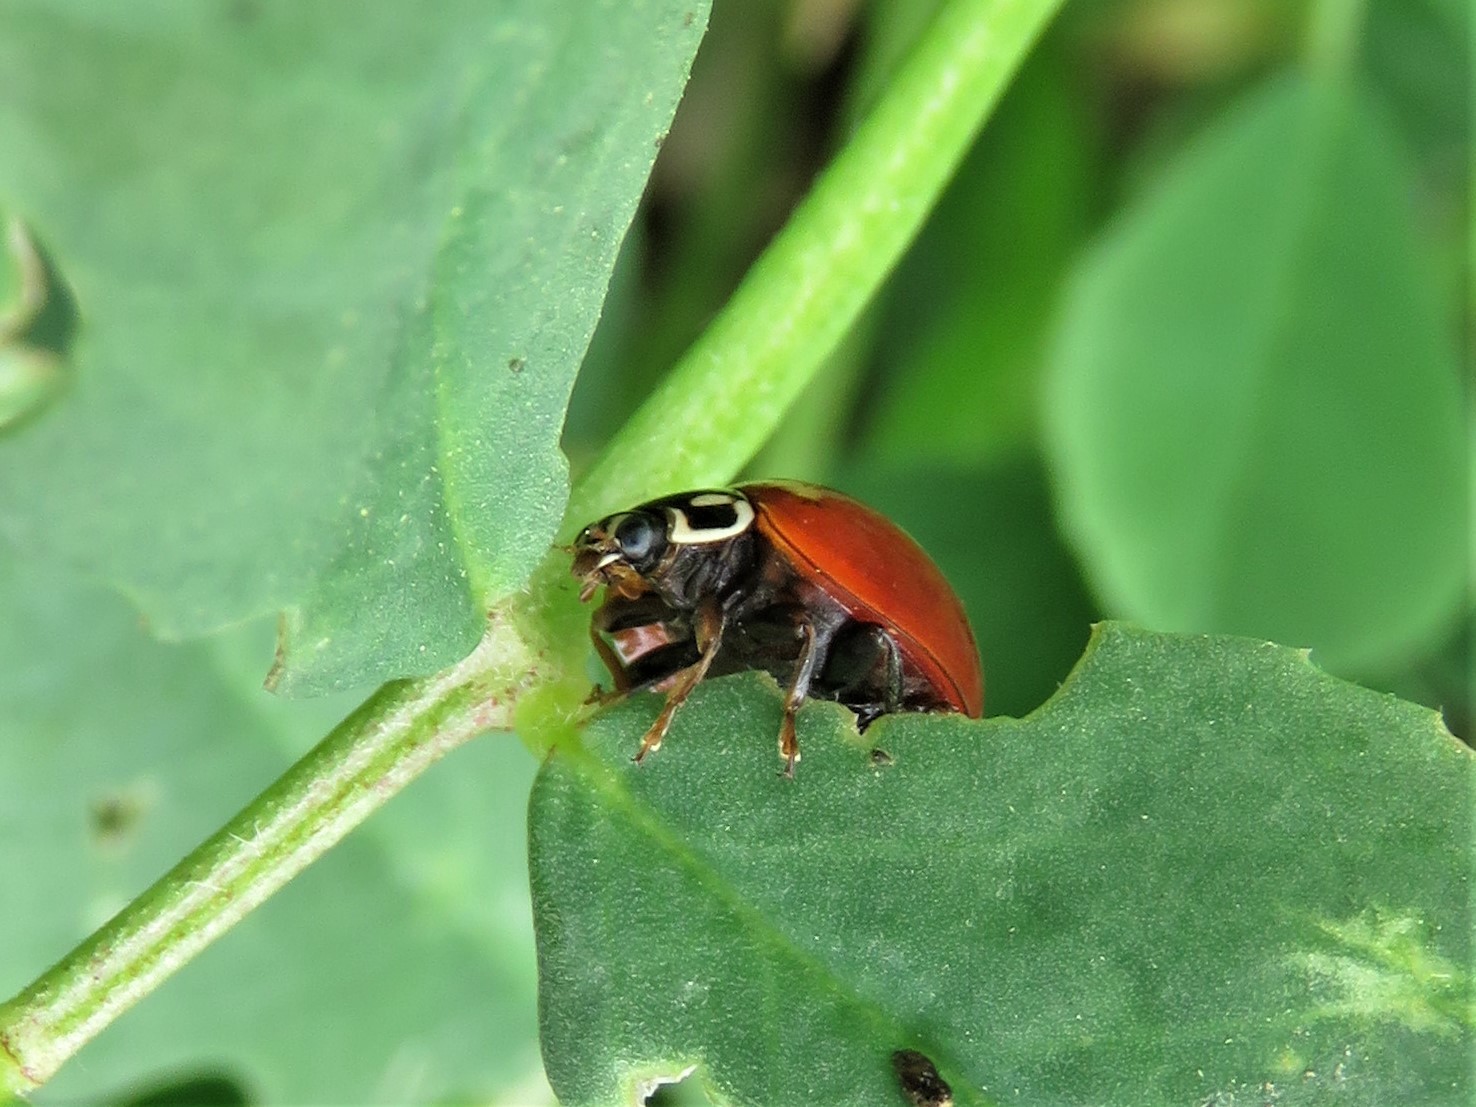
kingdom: Animalia
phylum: Arthropoda
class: Insecta
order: Coleoptera
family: Coccinellidae
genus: Cycloneda
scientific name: Cycloneda sanguinea
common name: Ladybird beetle
